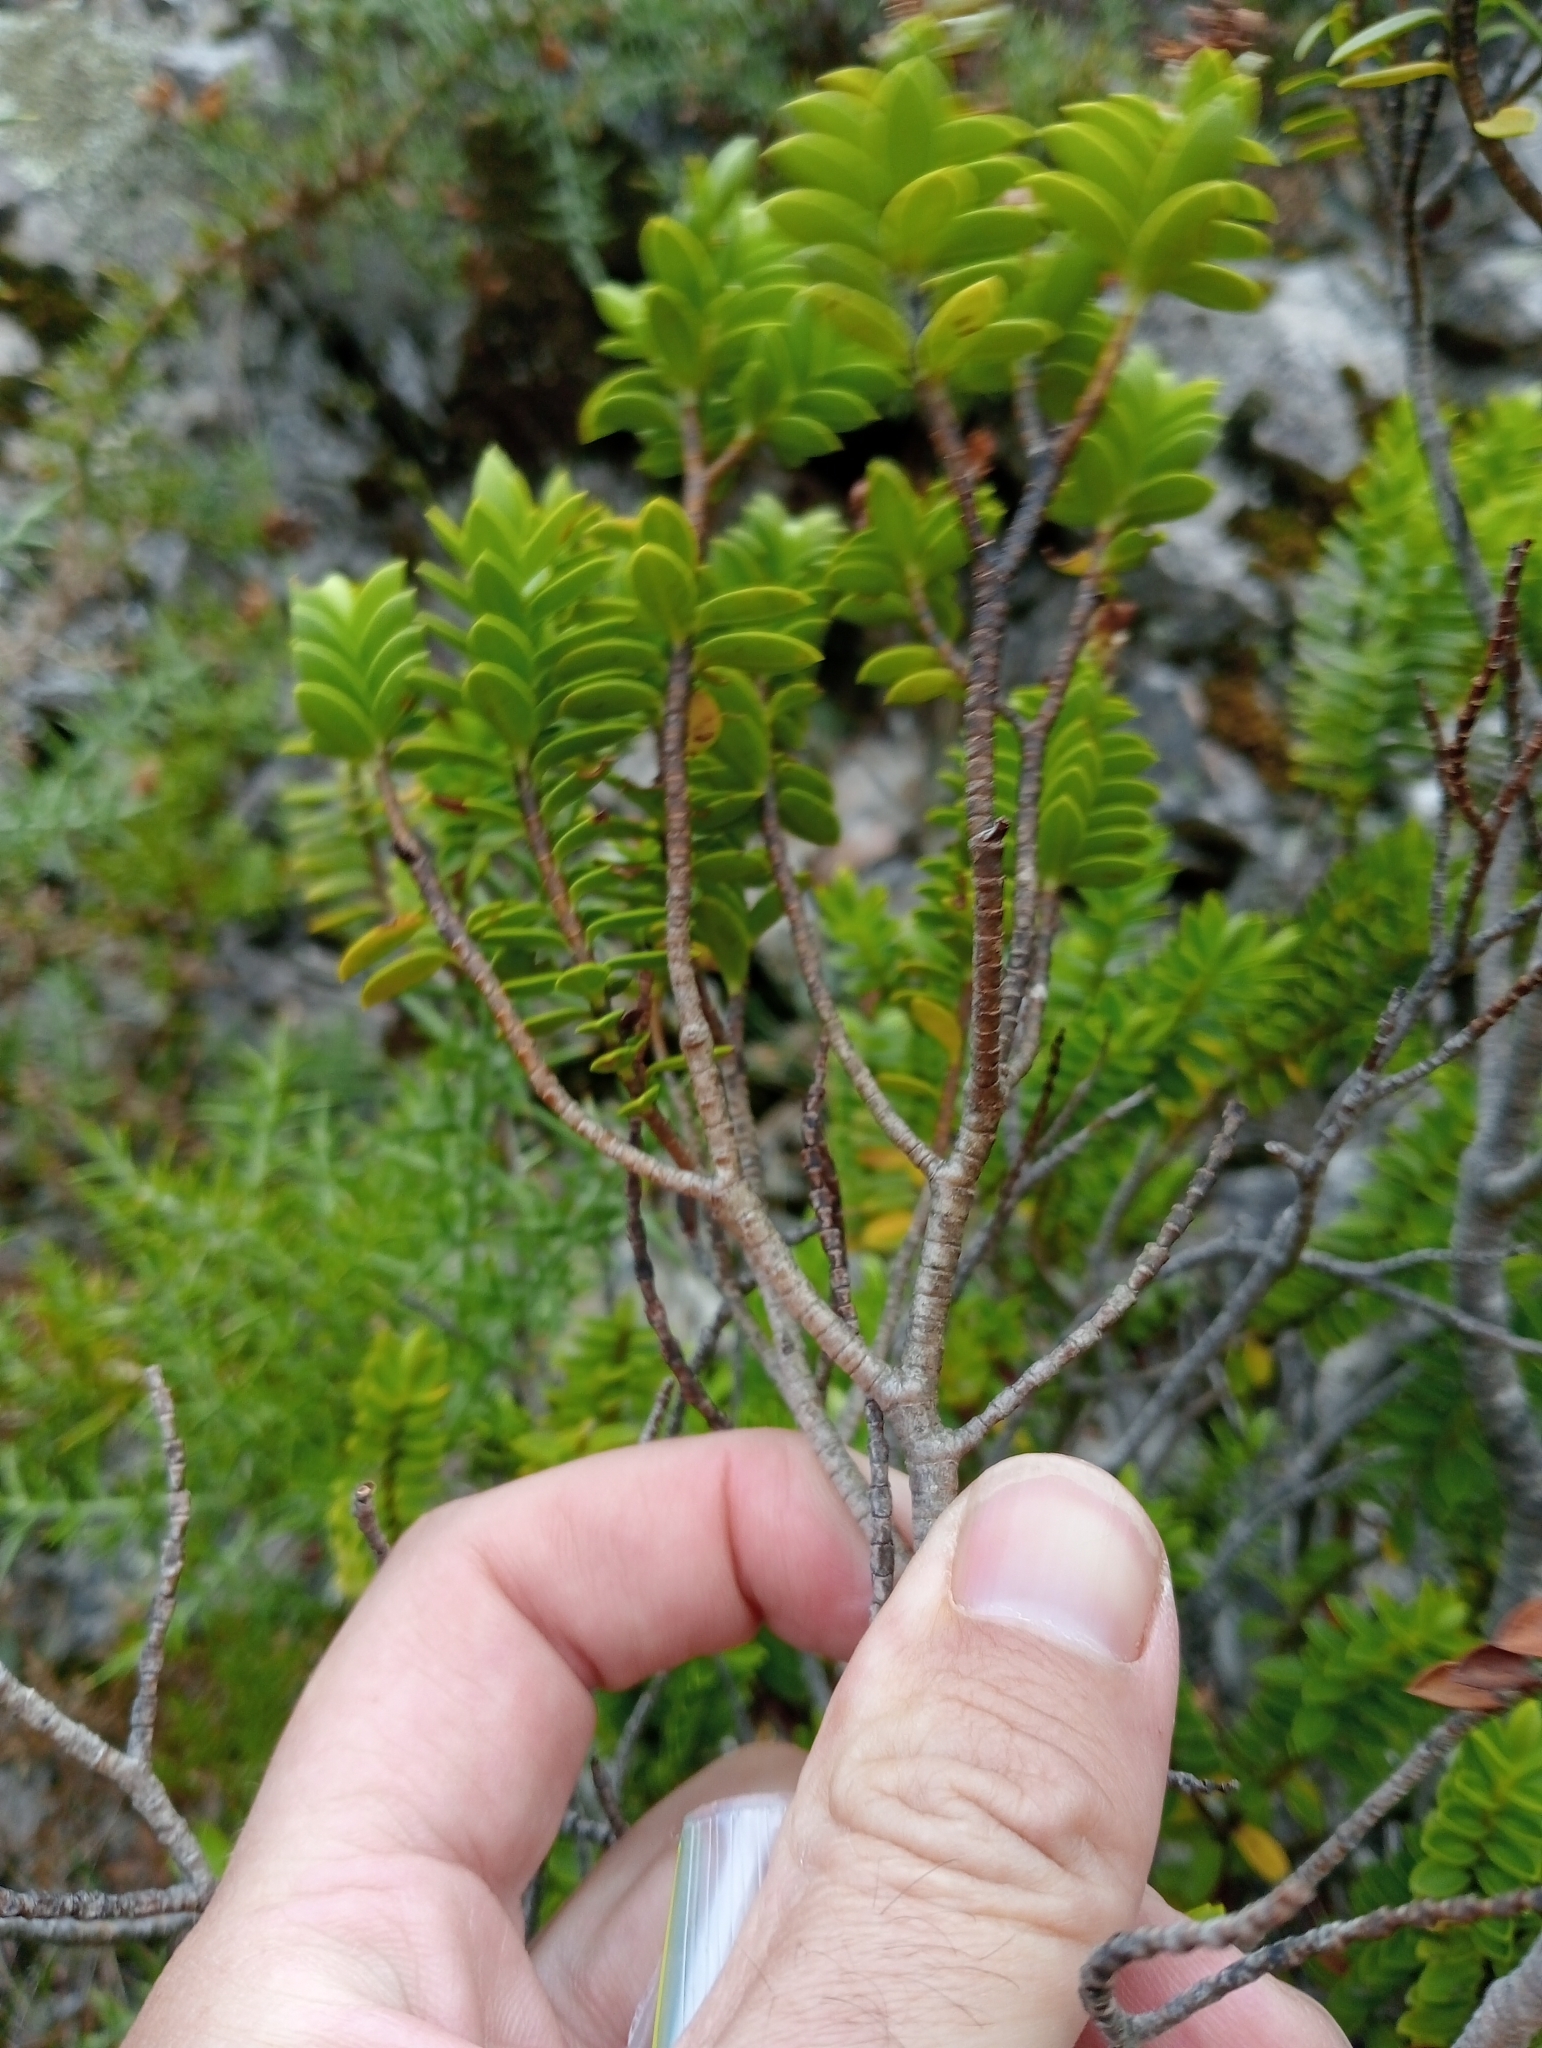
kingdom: Plantae
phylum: Tracheophyta
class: Magnoliopsida
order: Lamiales
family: Plantaginaceae
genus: Veronica
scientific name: Veronica brachysiphon
